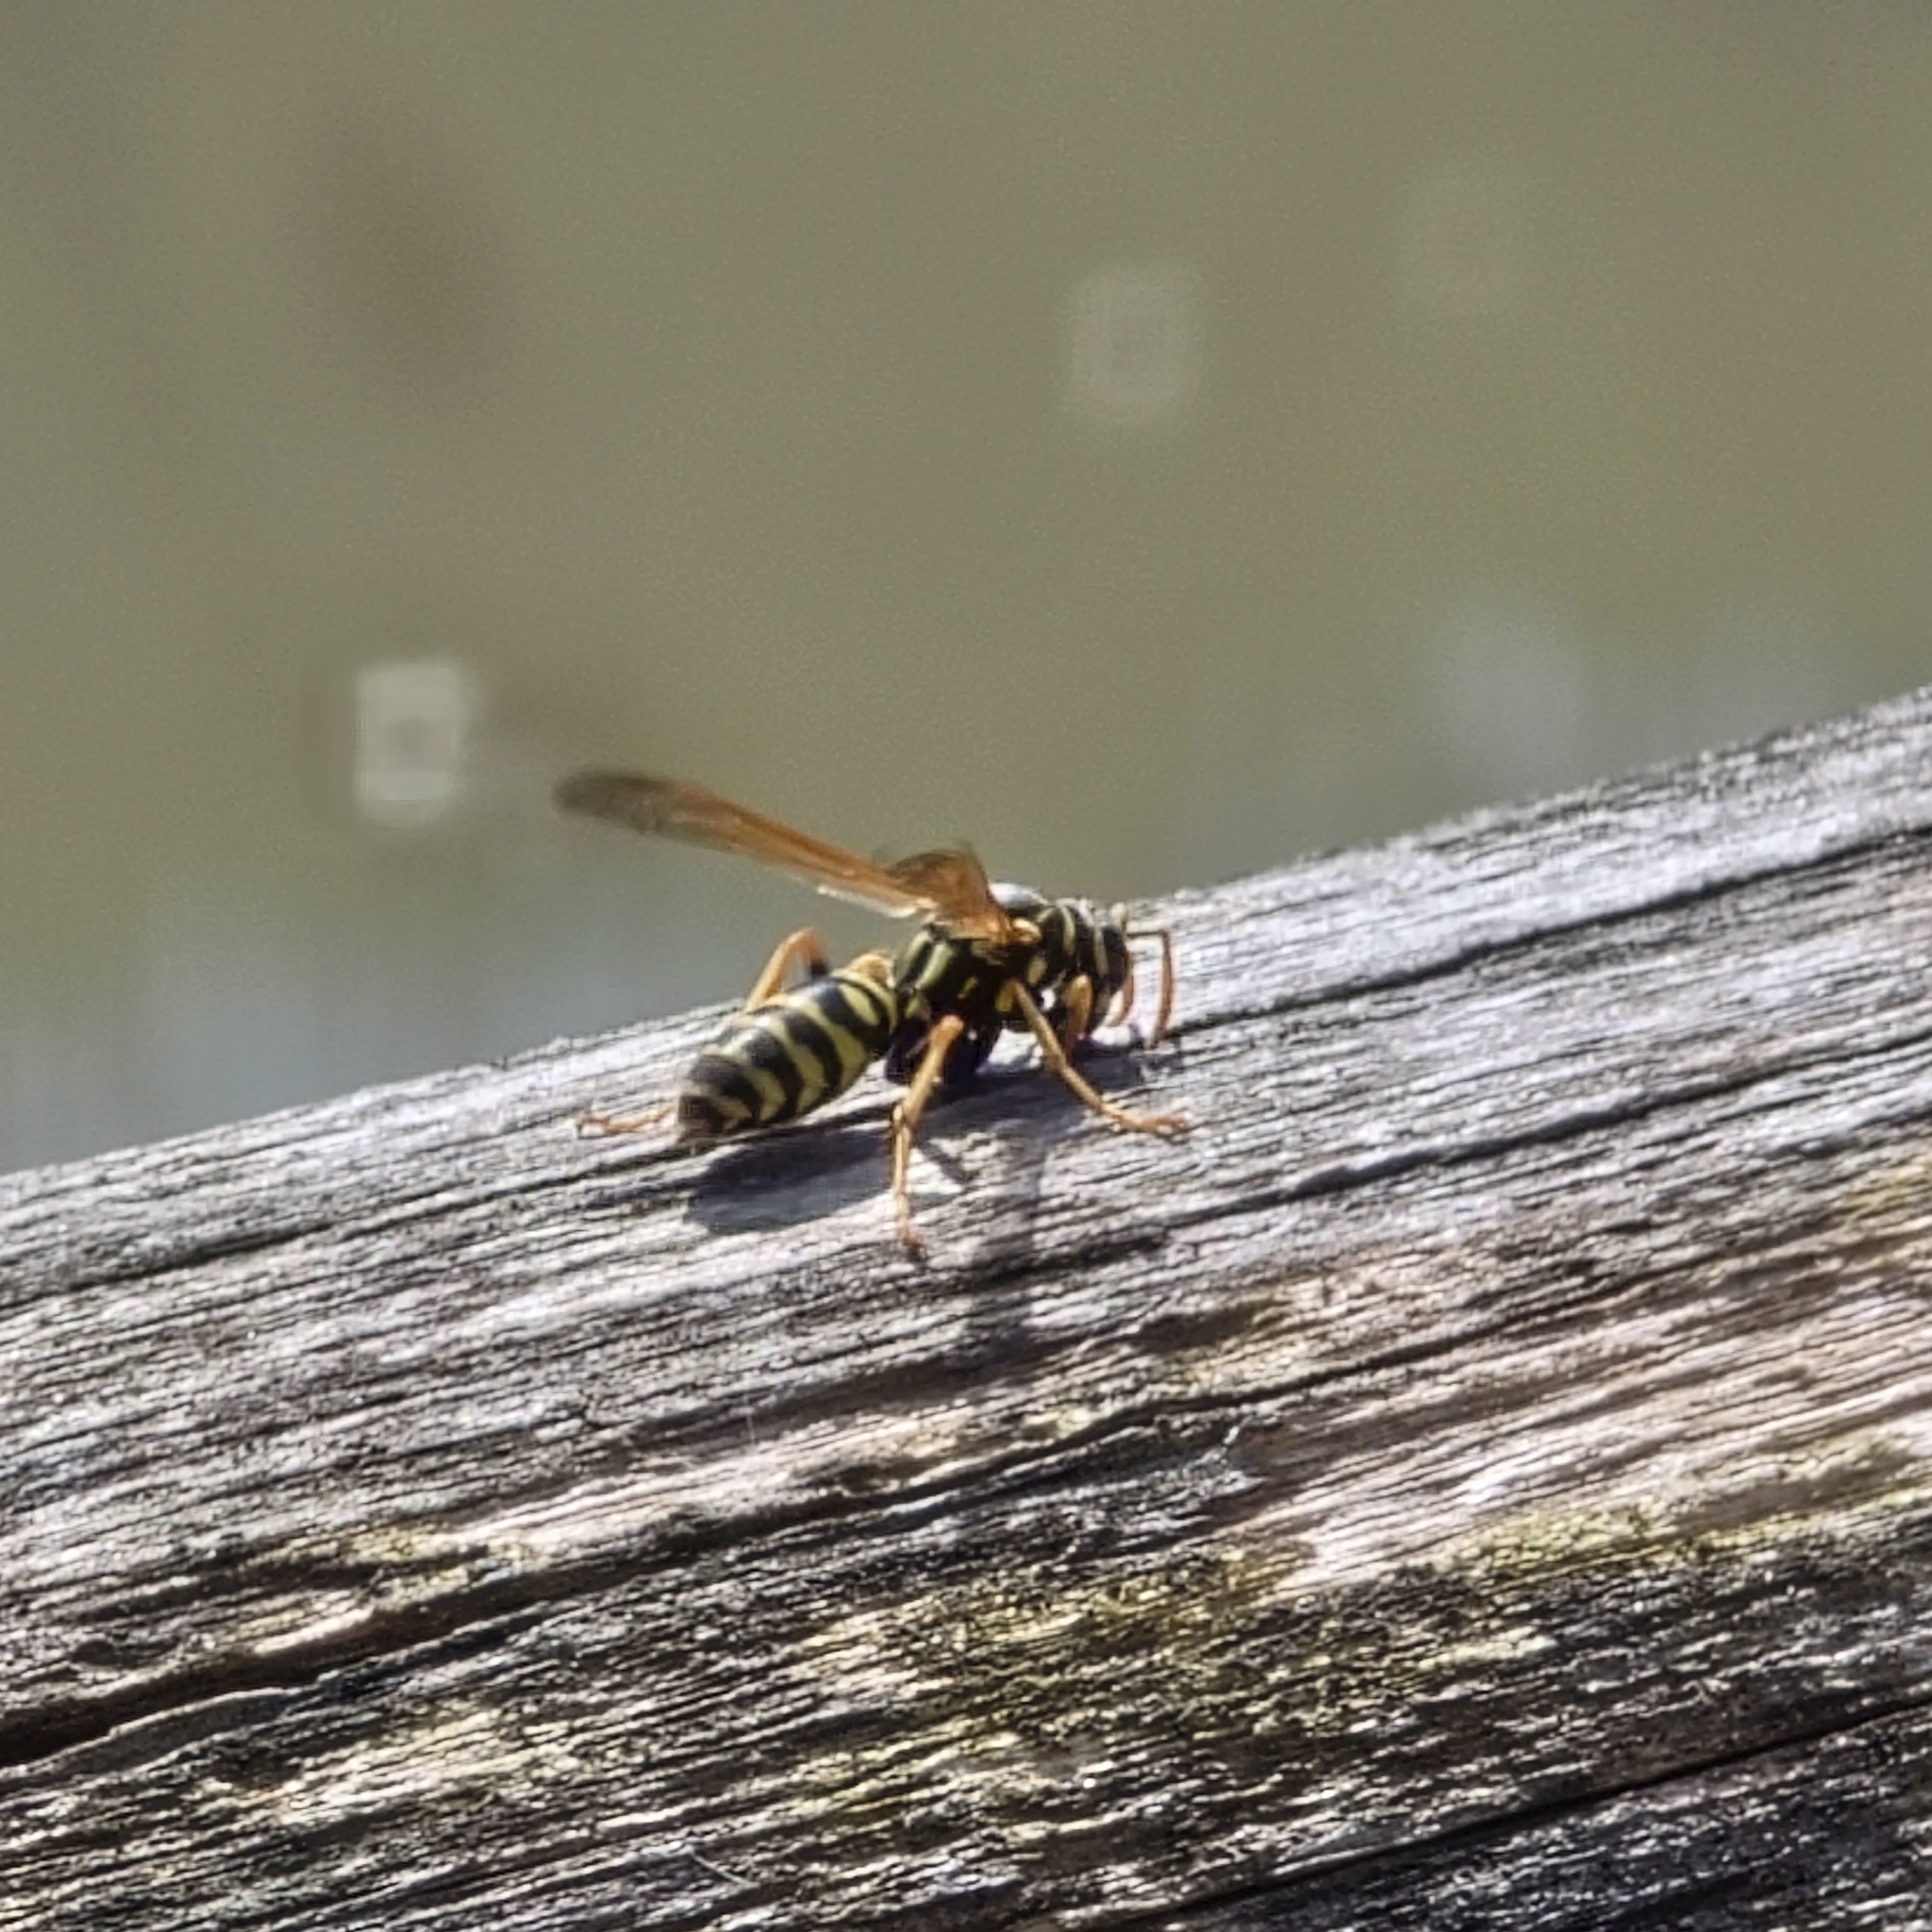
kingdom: Animalia
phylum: Arthropoda
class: Insecta
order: Hymenoptera
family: Eumenidae
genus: Polistes
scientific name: Polistes dominula
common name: Paper wasp
